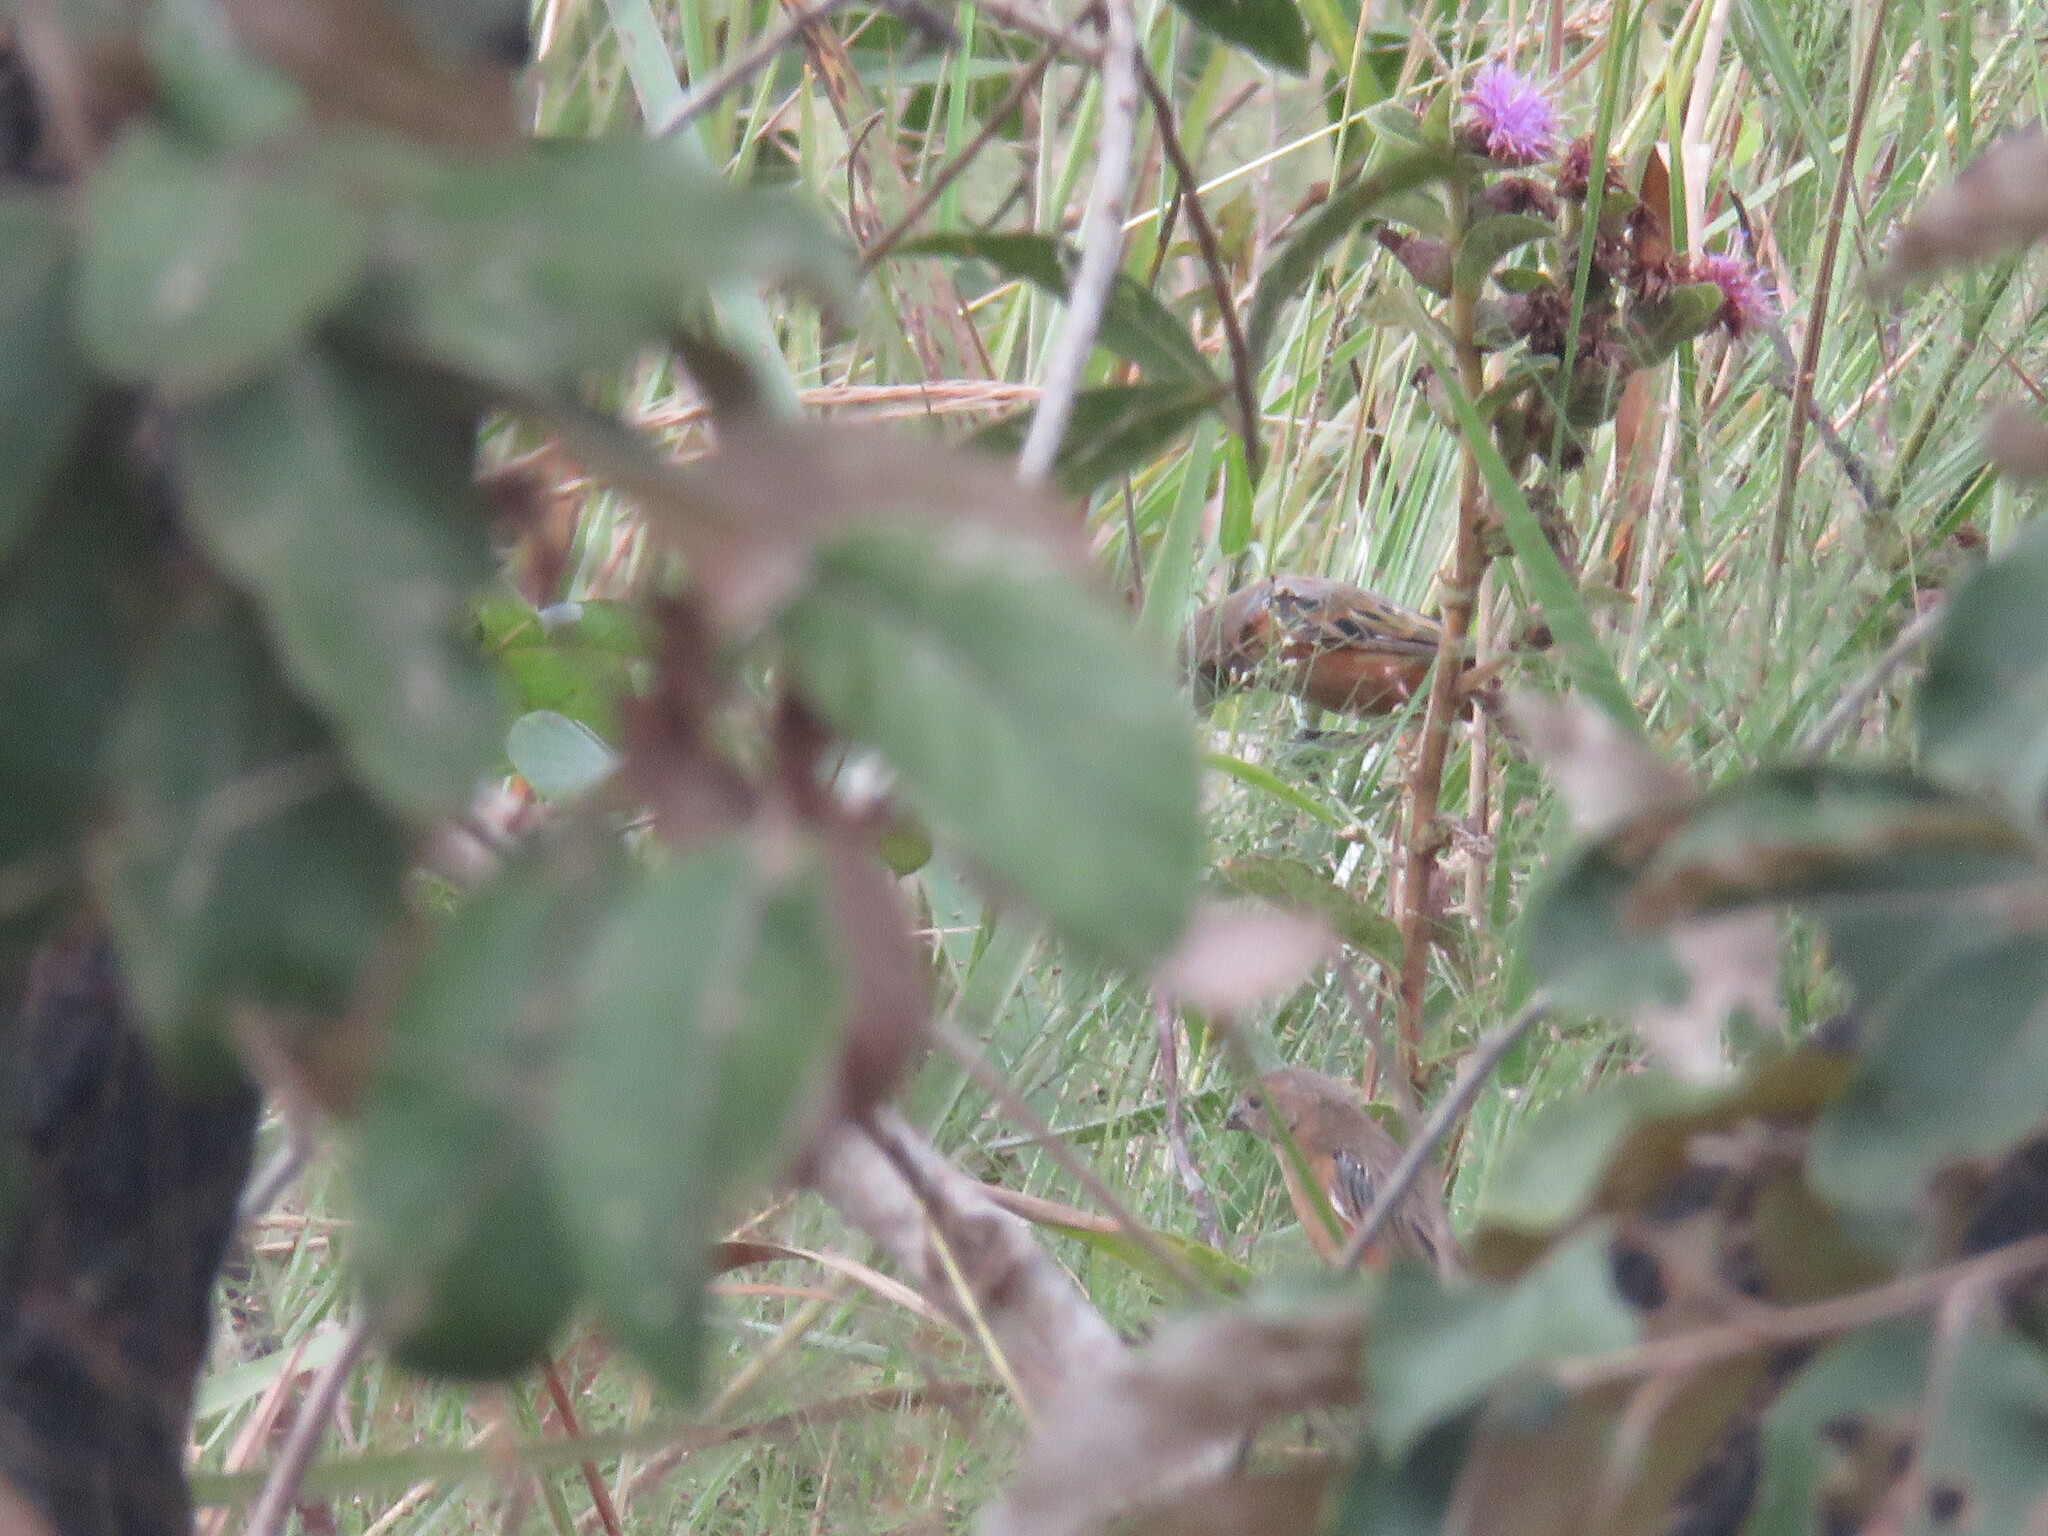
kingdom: Animalia
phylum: Chordata
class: Aves
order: Passeriformes
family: Thraupidae
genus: Sporophila
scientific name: Sporophila ruficollis
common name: Dark-throated seedeater
